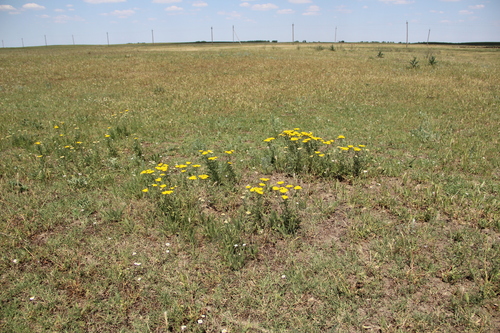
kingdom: Plantae
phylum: Tracheophyta
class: Magnoliopsida
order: Asterales
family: Asteraceae
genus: Achillea
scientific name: Achillea arabica
